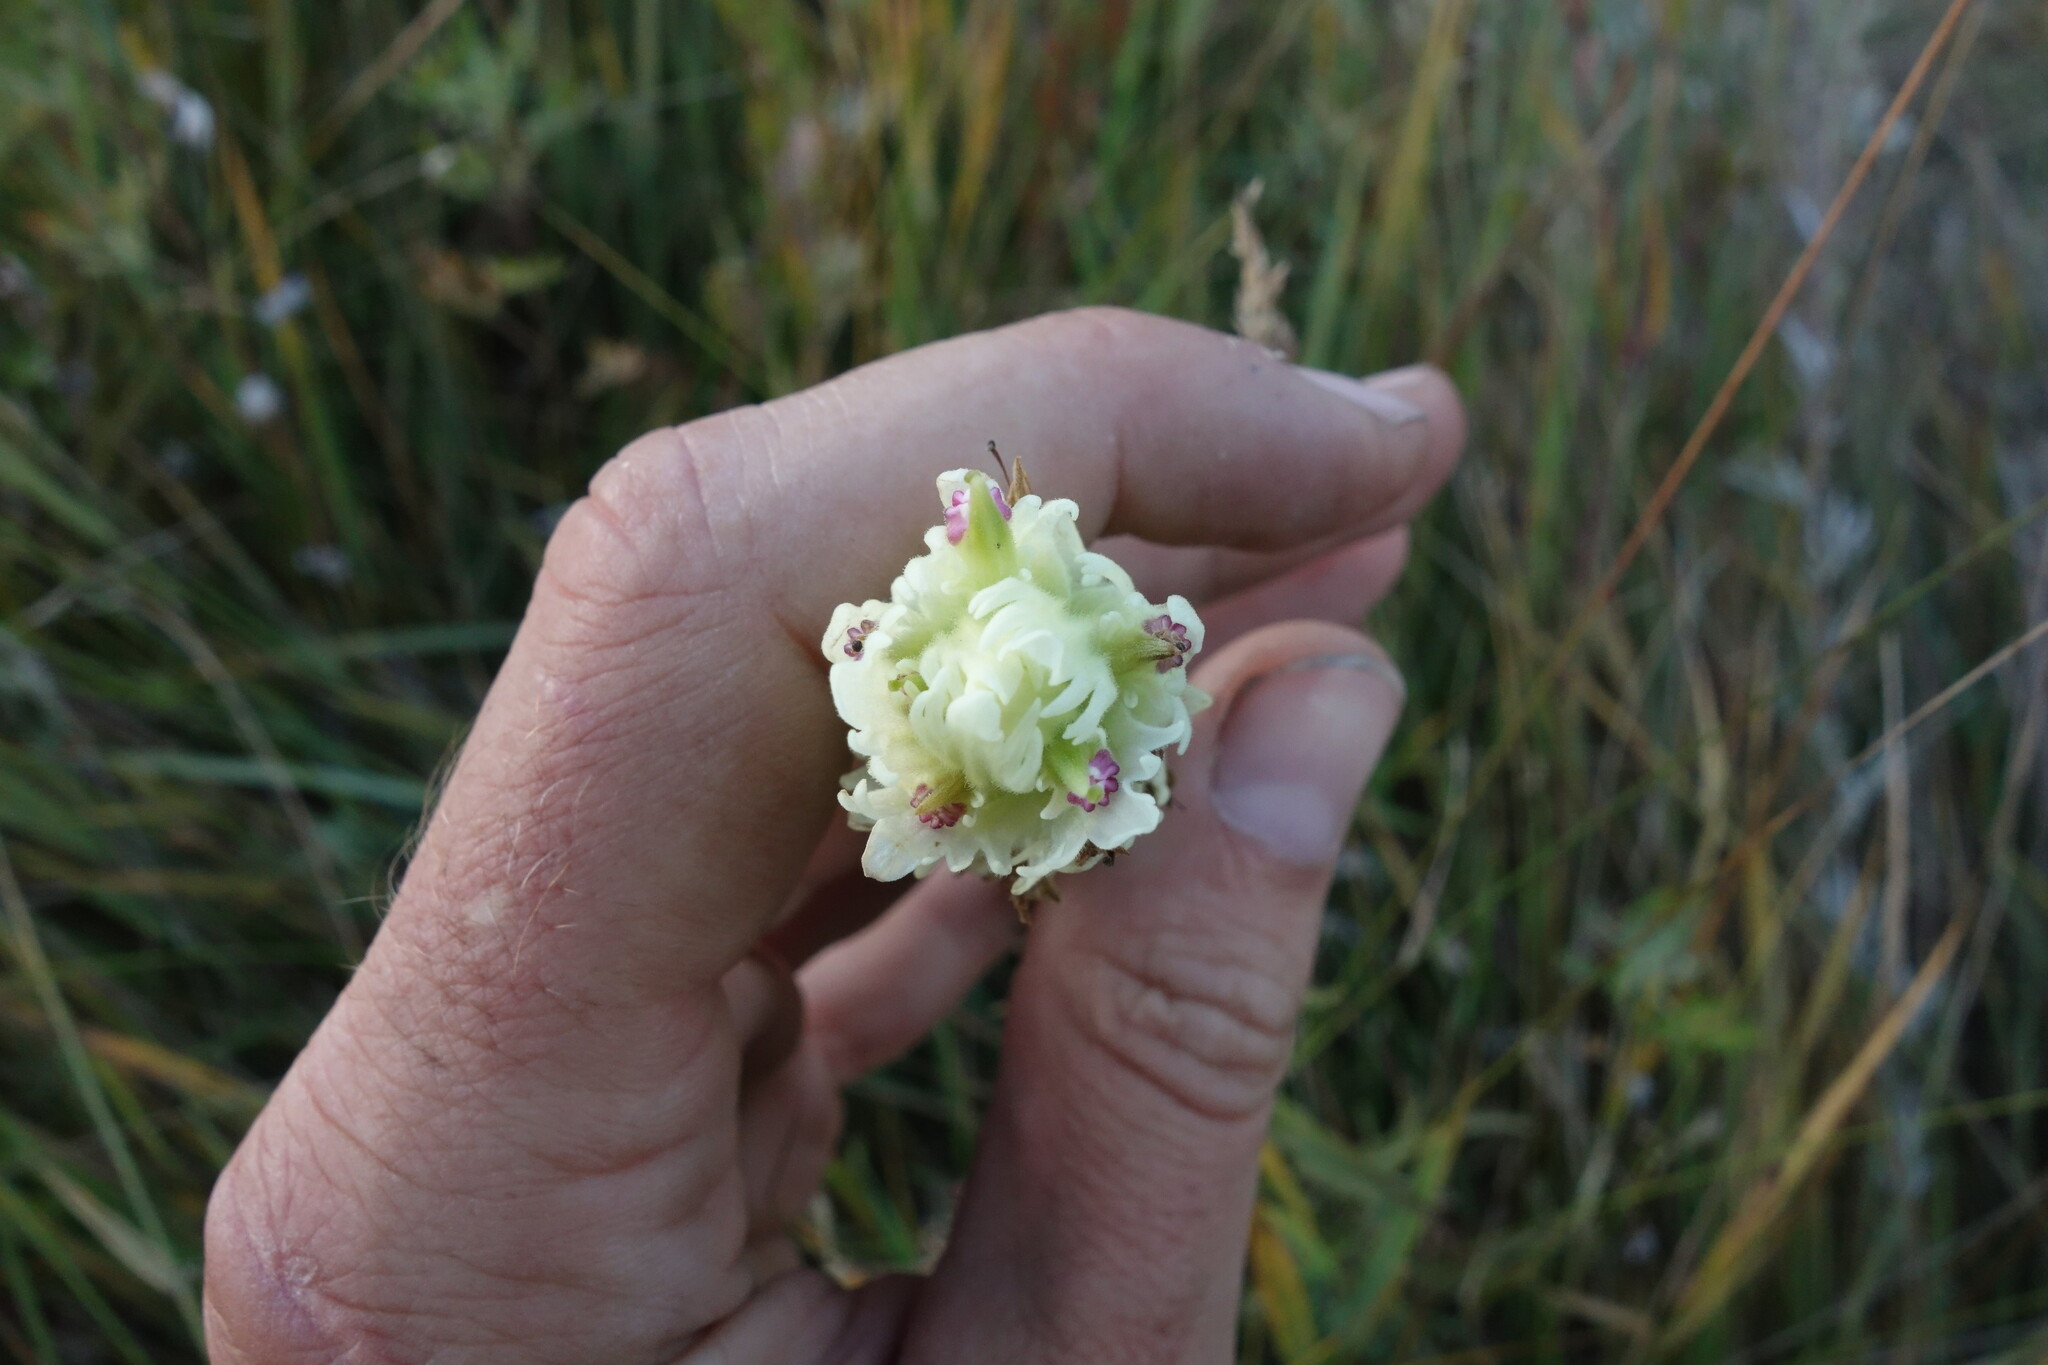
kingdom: Plantae
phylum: Tracheophyta
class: Magnoliopsida
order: Lamiales
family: Orobanchaceae
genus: Castilleja
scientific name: Castilleja pallida
